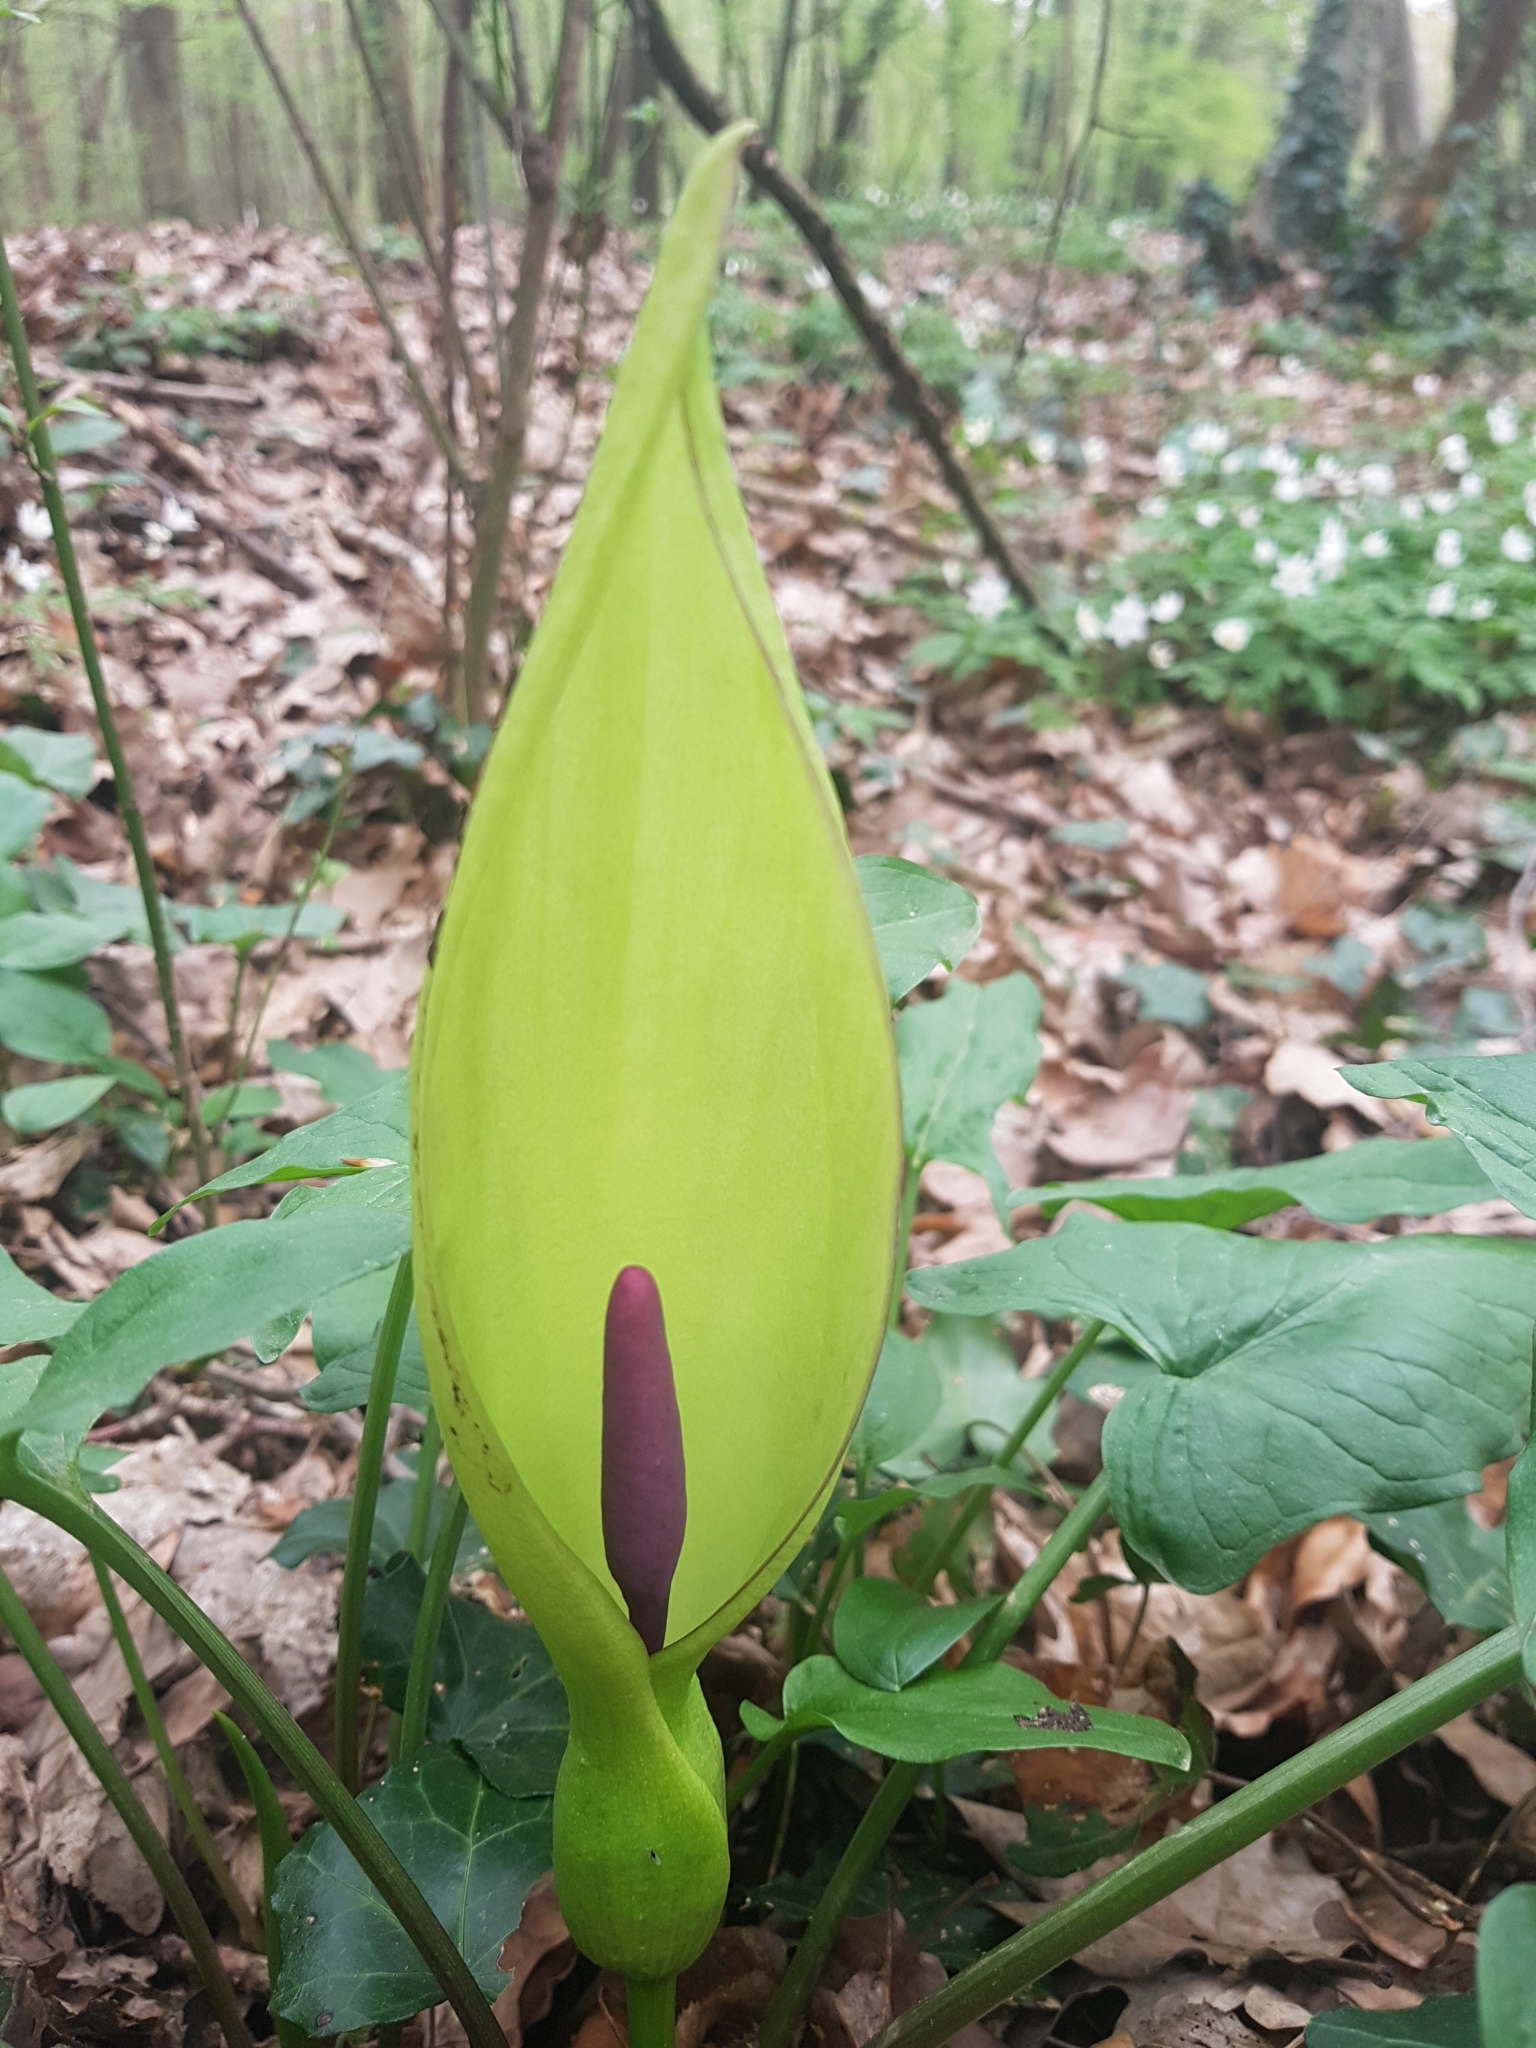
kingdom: Plantae
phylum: Tracheophyta
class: Liliopsida
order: Alismatales
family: Araceae
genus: Arum
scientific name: Arum maculatum
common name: Lords-and-ladies
